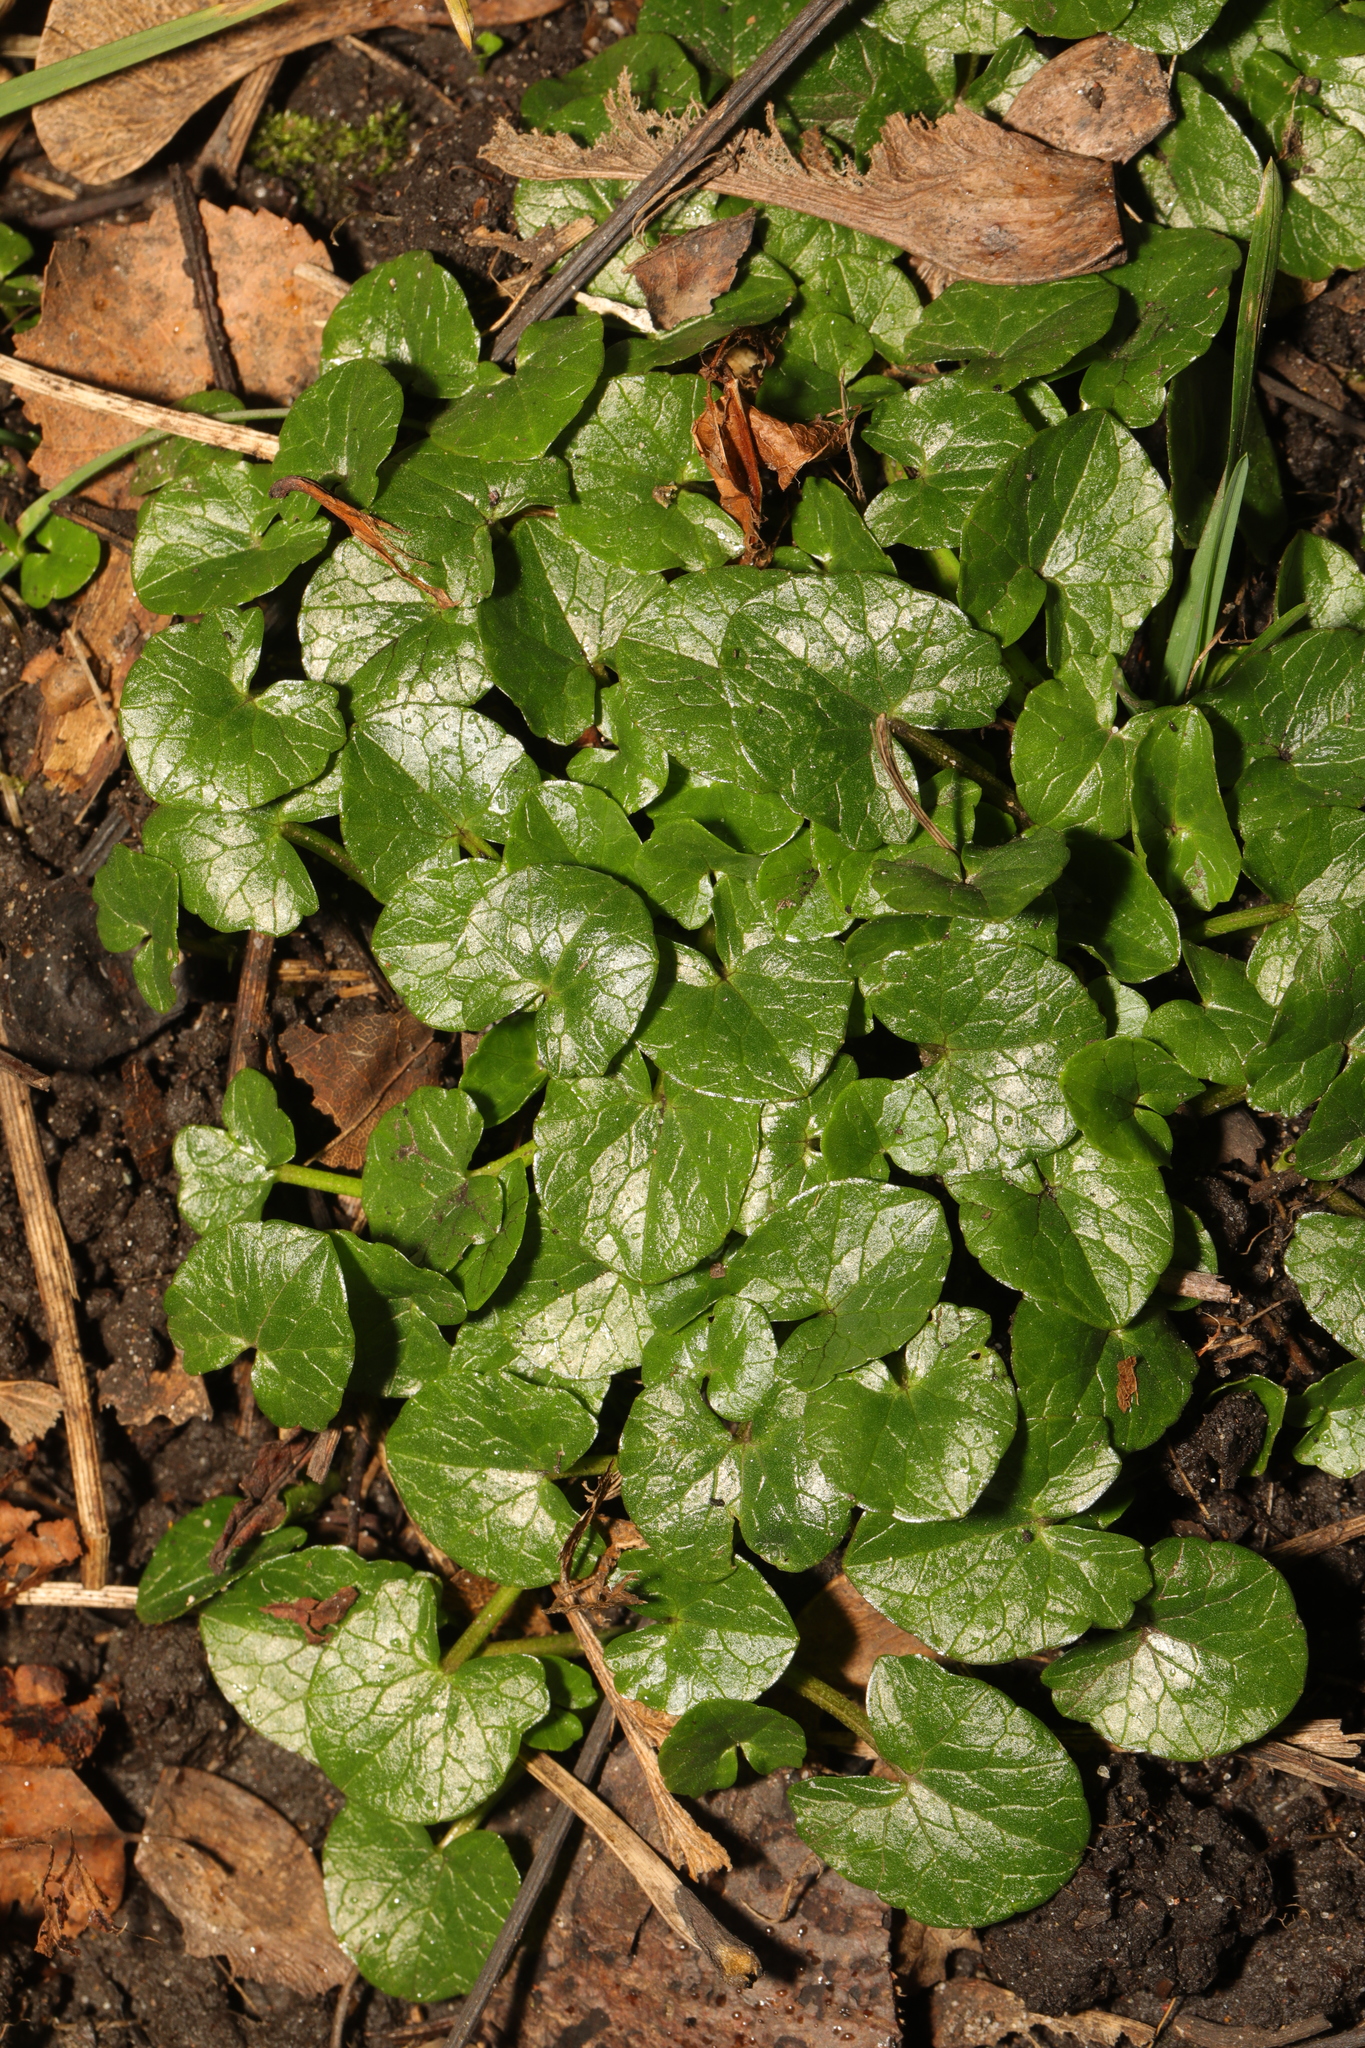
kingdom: Plantae
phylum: Tracheophyta
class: Magnoliopsida
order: Ranunculales
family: Ranunculaceae
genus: Ficaria
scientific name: Ficaria verna
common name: Lesser celandine
